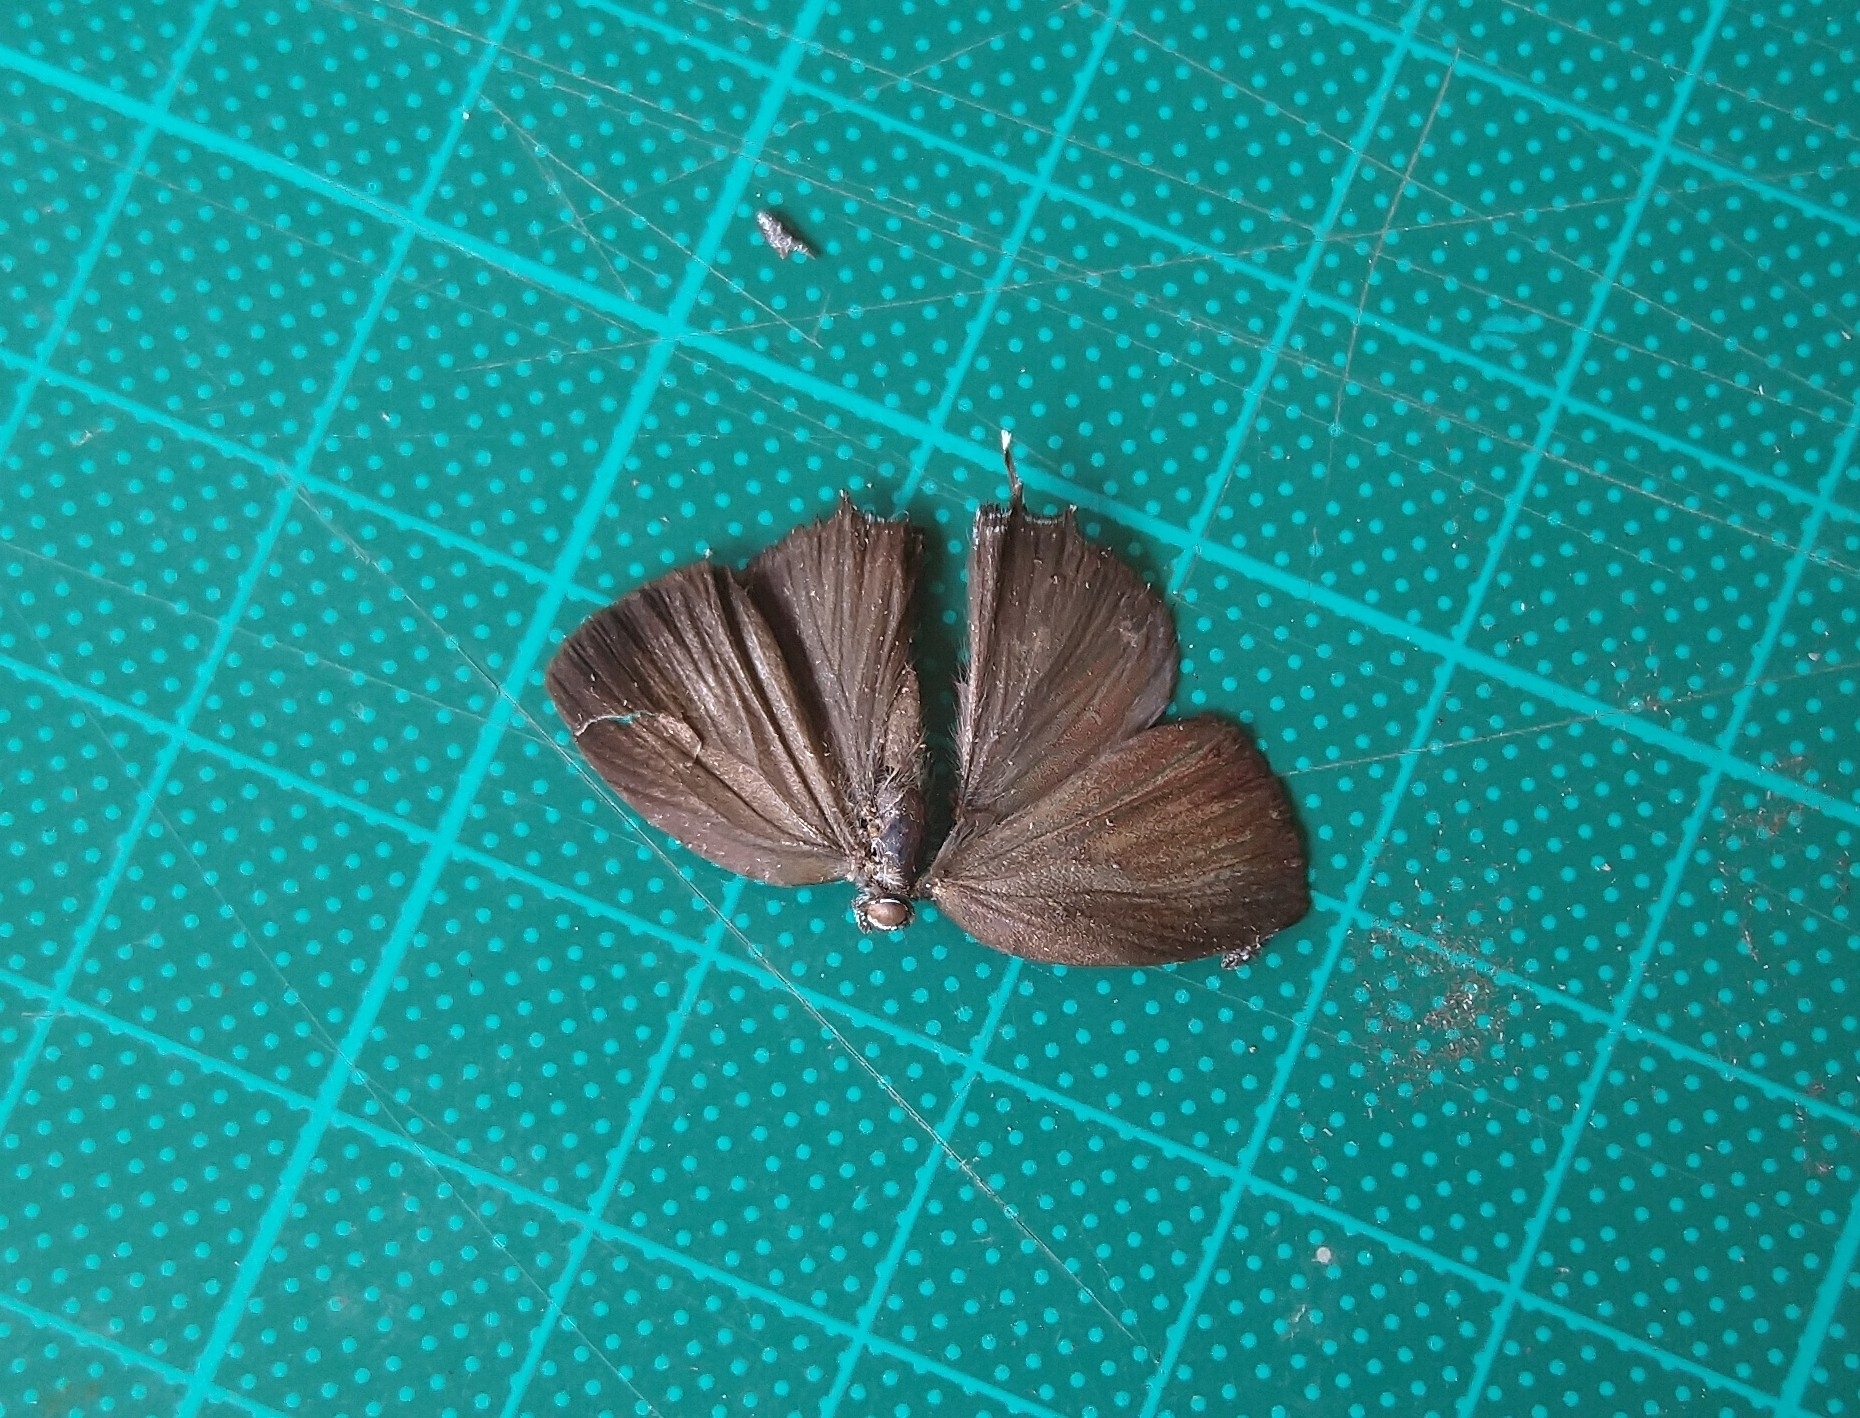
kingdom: Animalia
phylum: Arthropoda
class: Insecta
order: Lepidoptera
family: Lycaenidae
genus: Thecla
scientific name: Thecla thales
